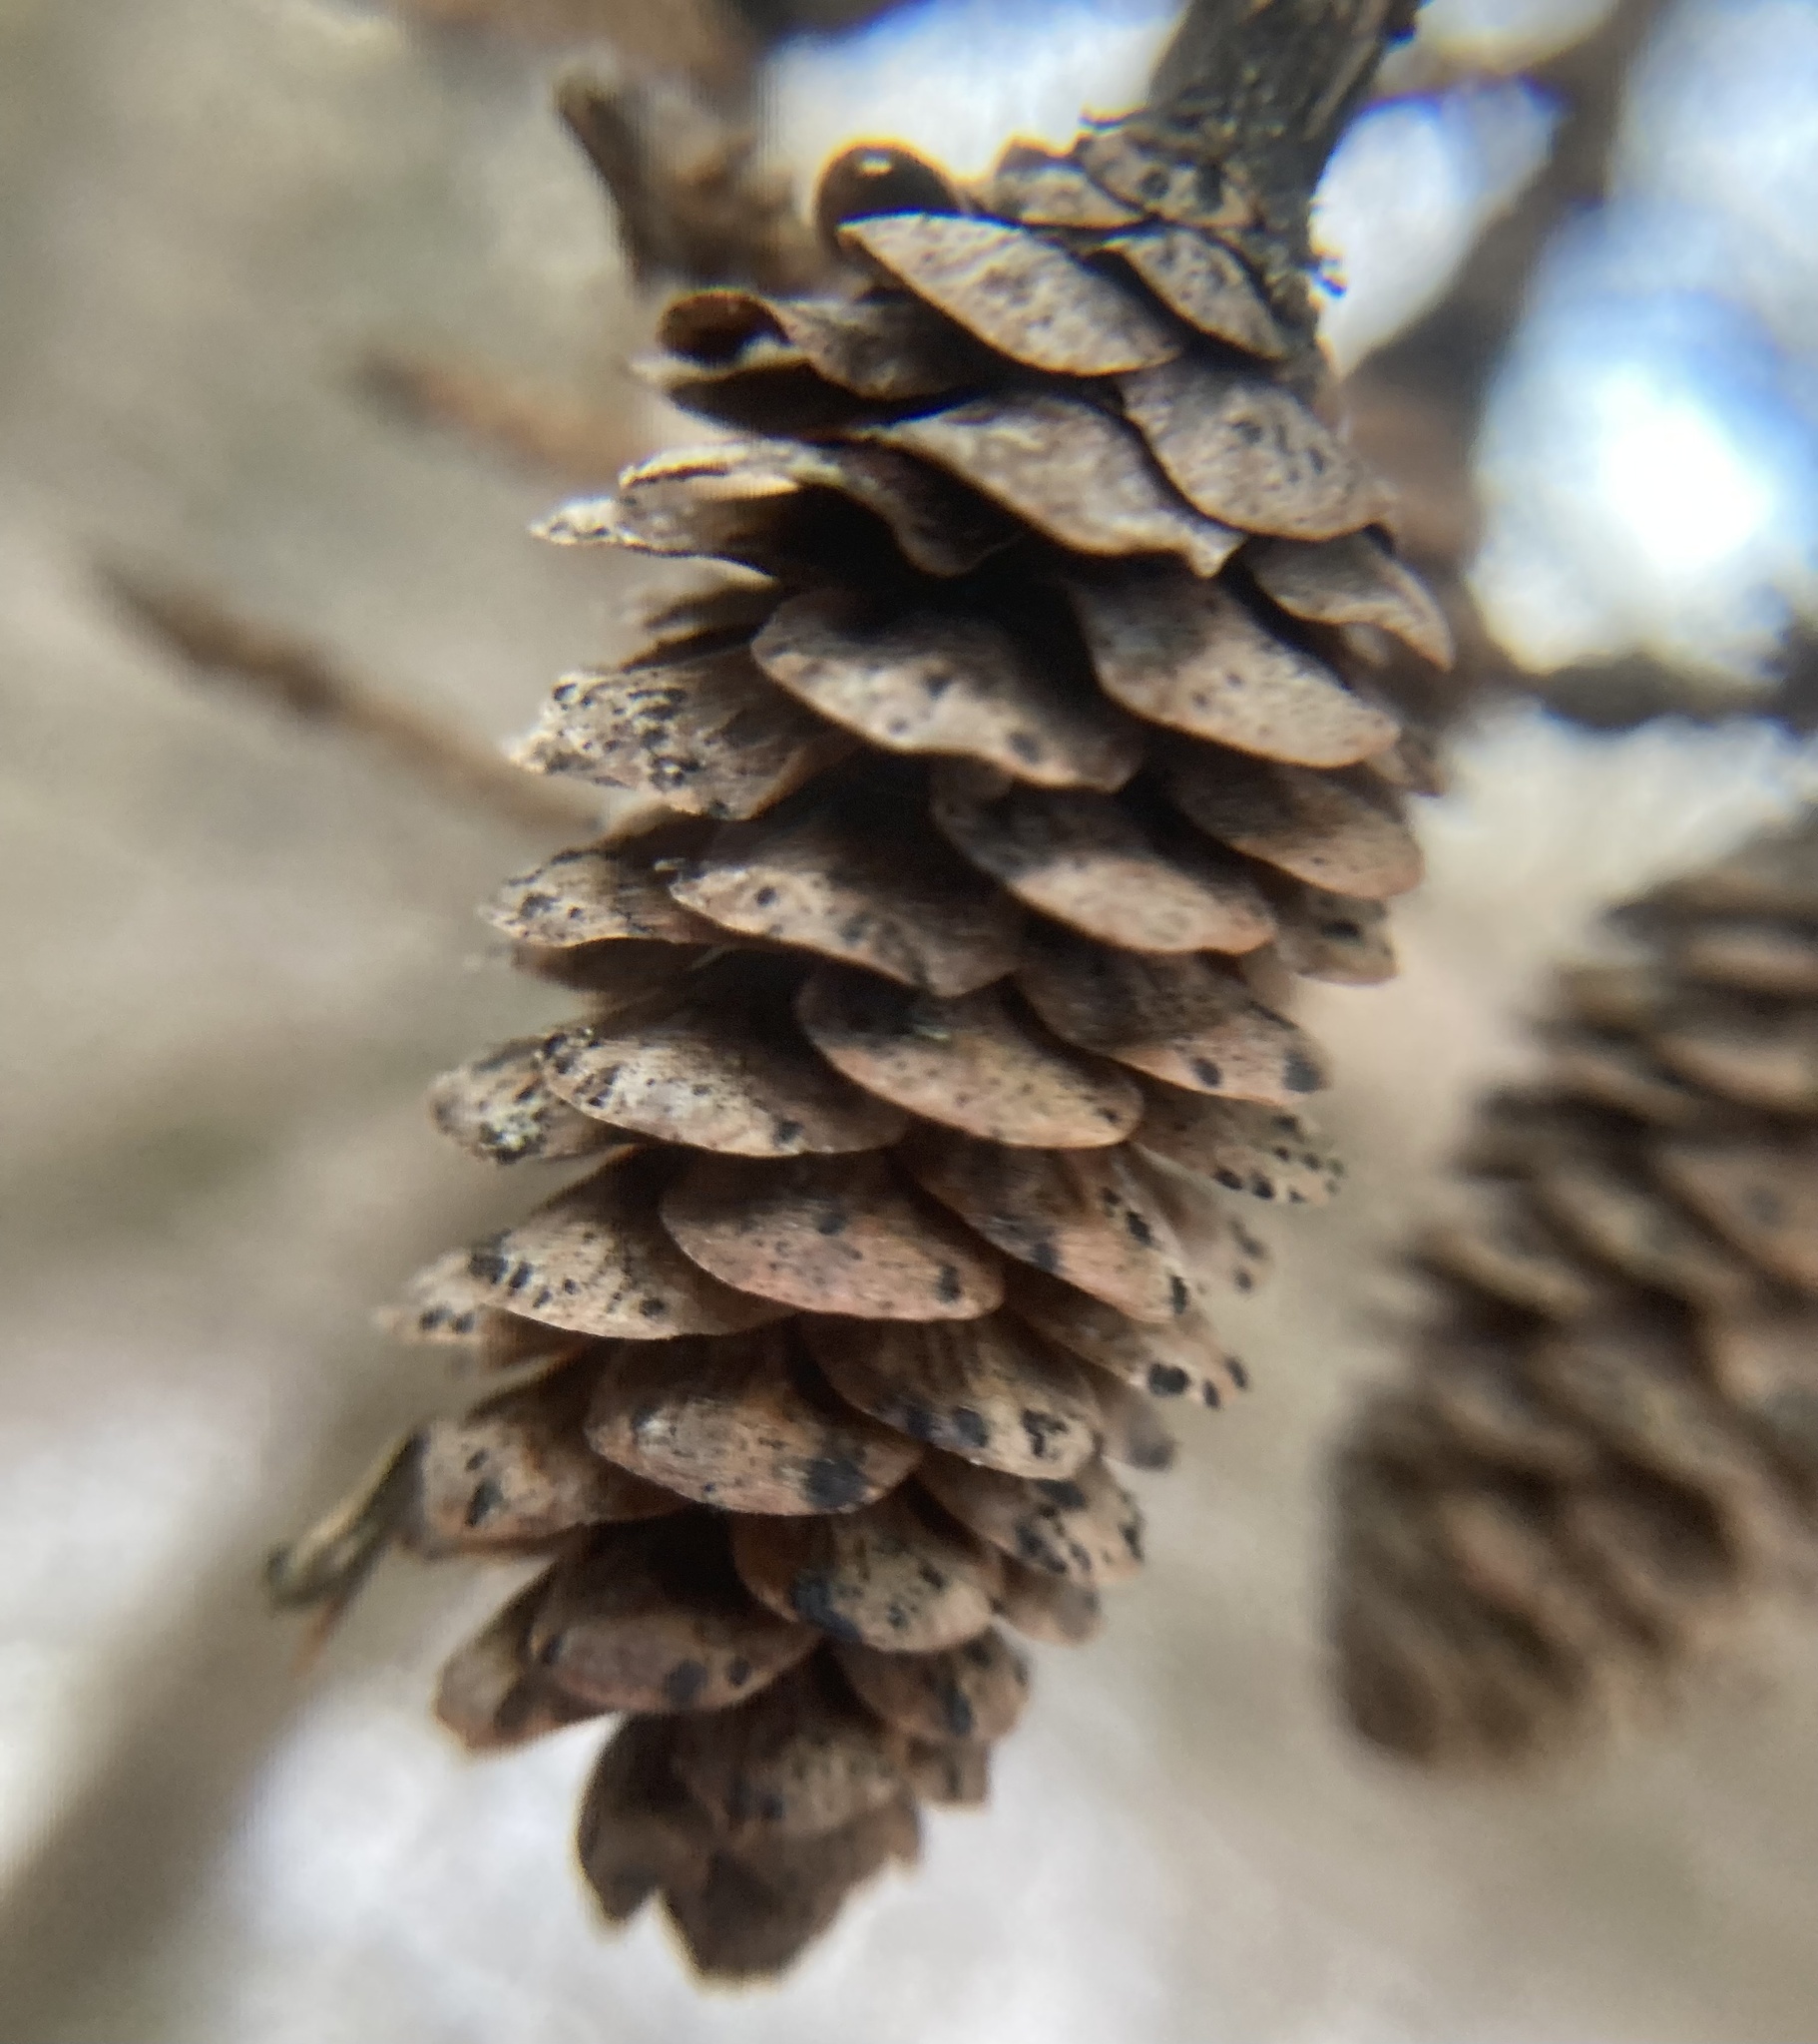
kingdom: Plantae
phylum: Tracheophyta
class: Pinopsida
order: Pinales
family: Pinaceae
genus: Picea
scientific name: Picea glauca
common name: White spruce
